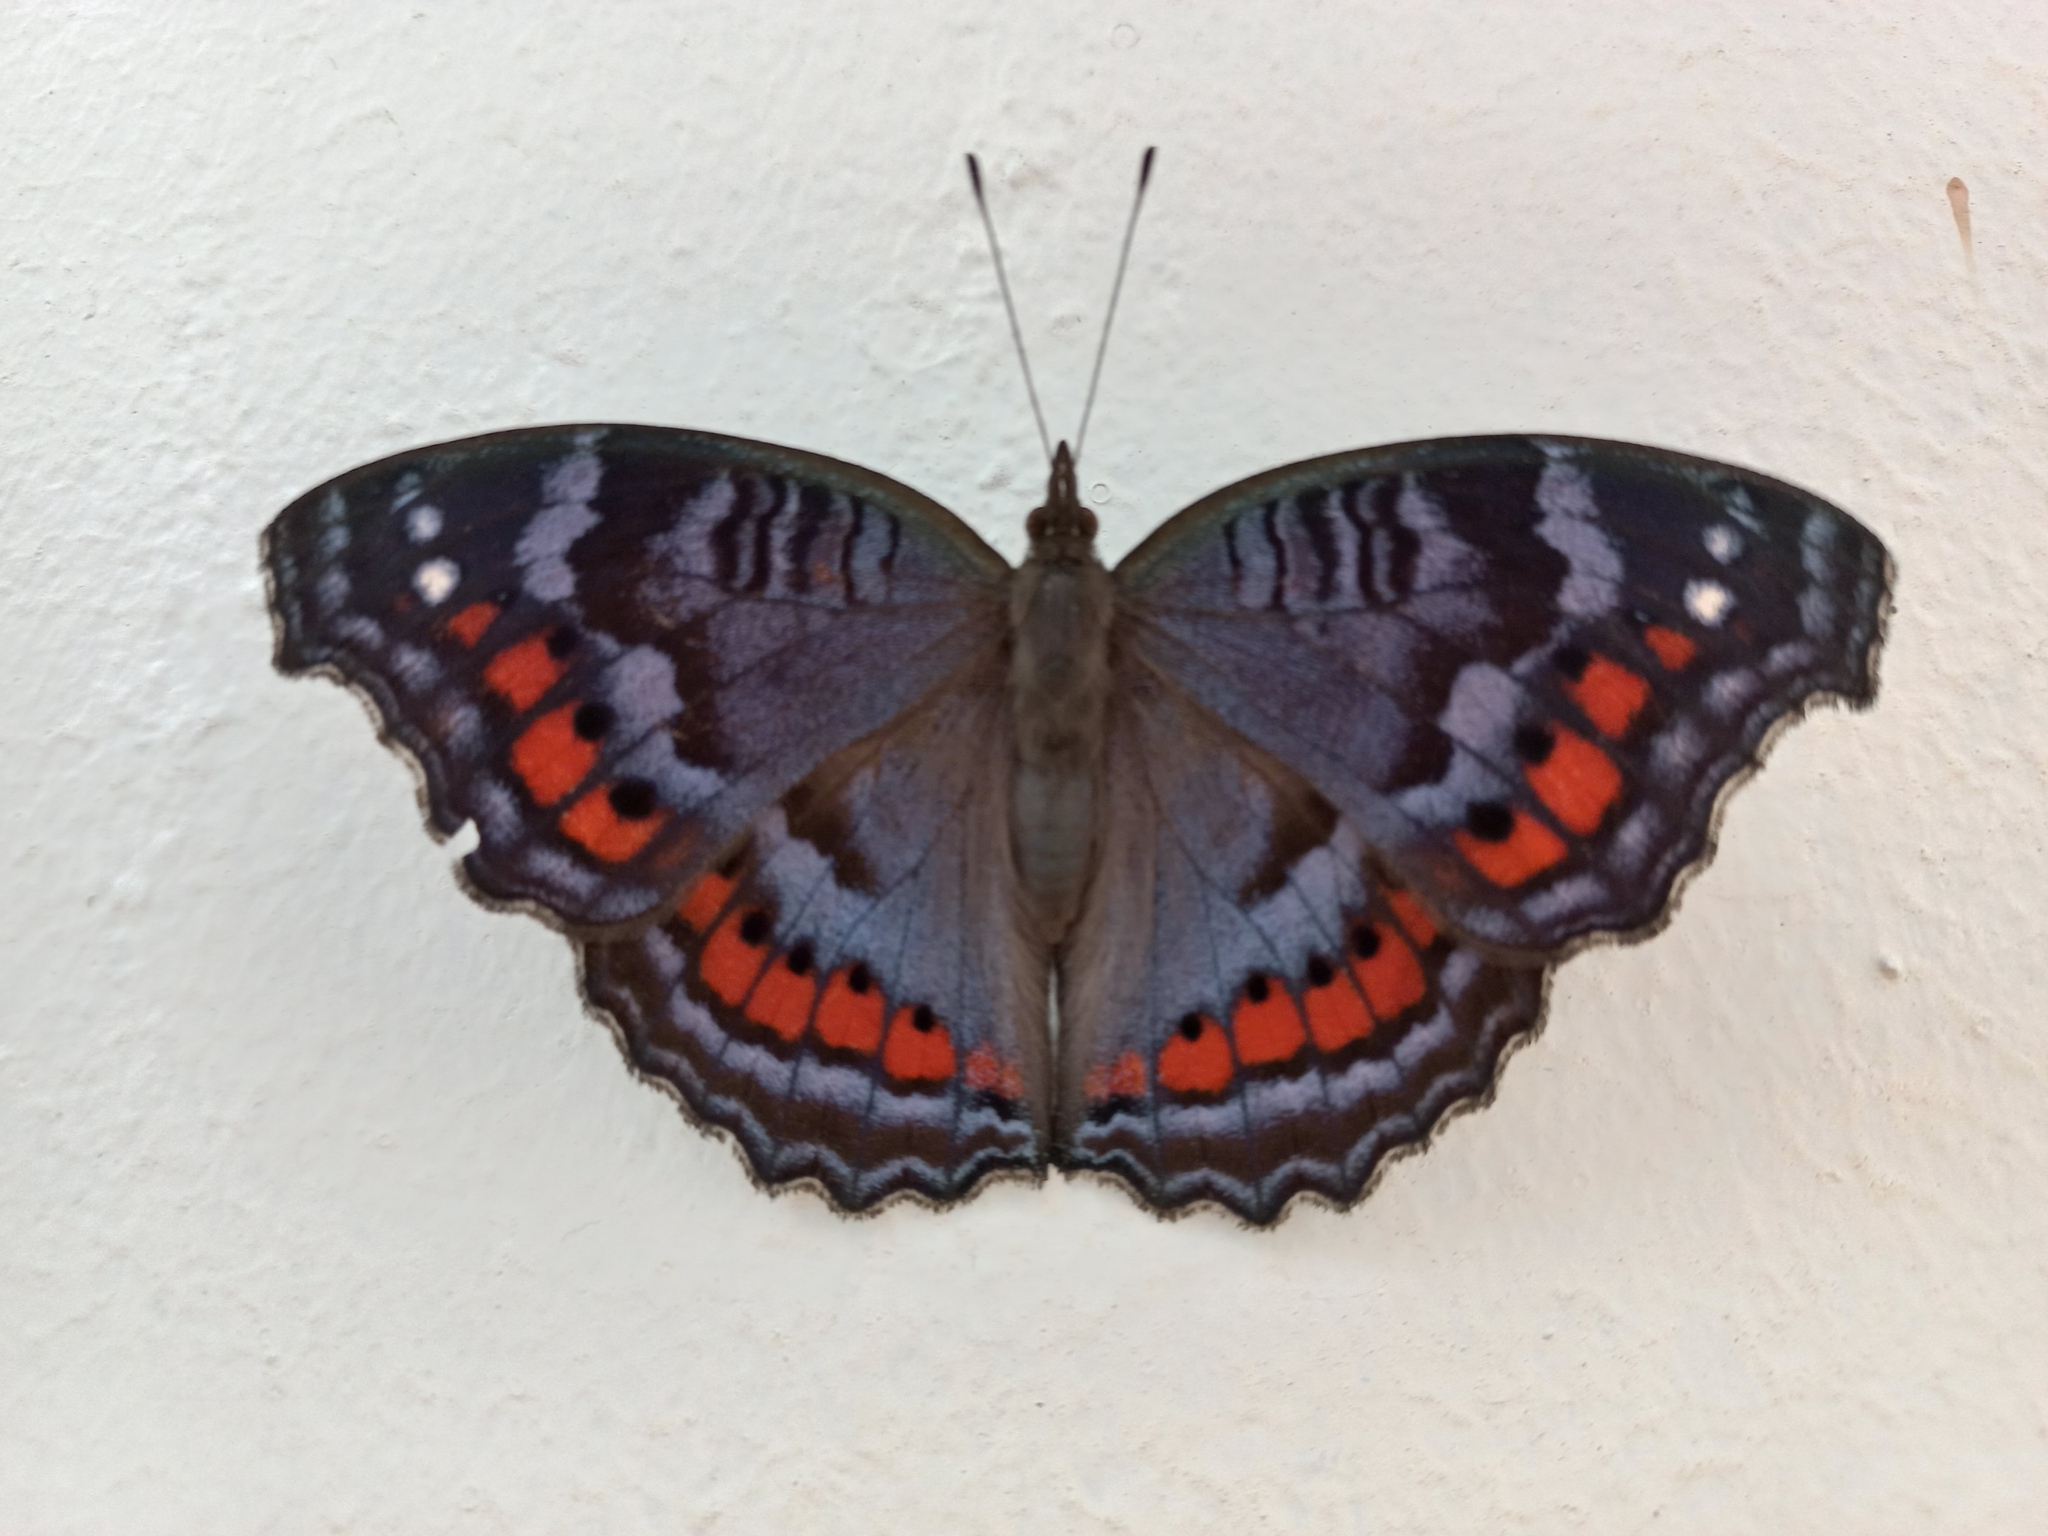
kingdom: Animalia
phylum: Arthropoda
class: Insecta
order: Lepidoptera
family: Nymphalidae
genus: Precis
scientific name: Precis octavia
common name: Gaudy commodore
